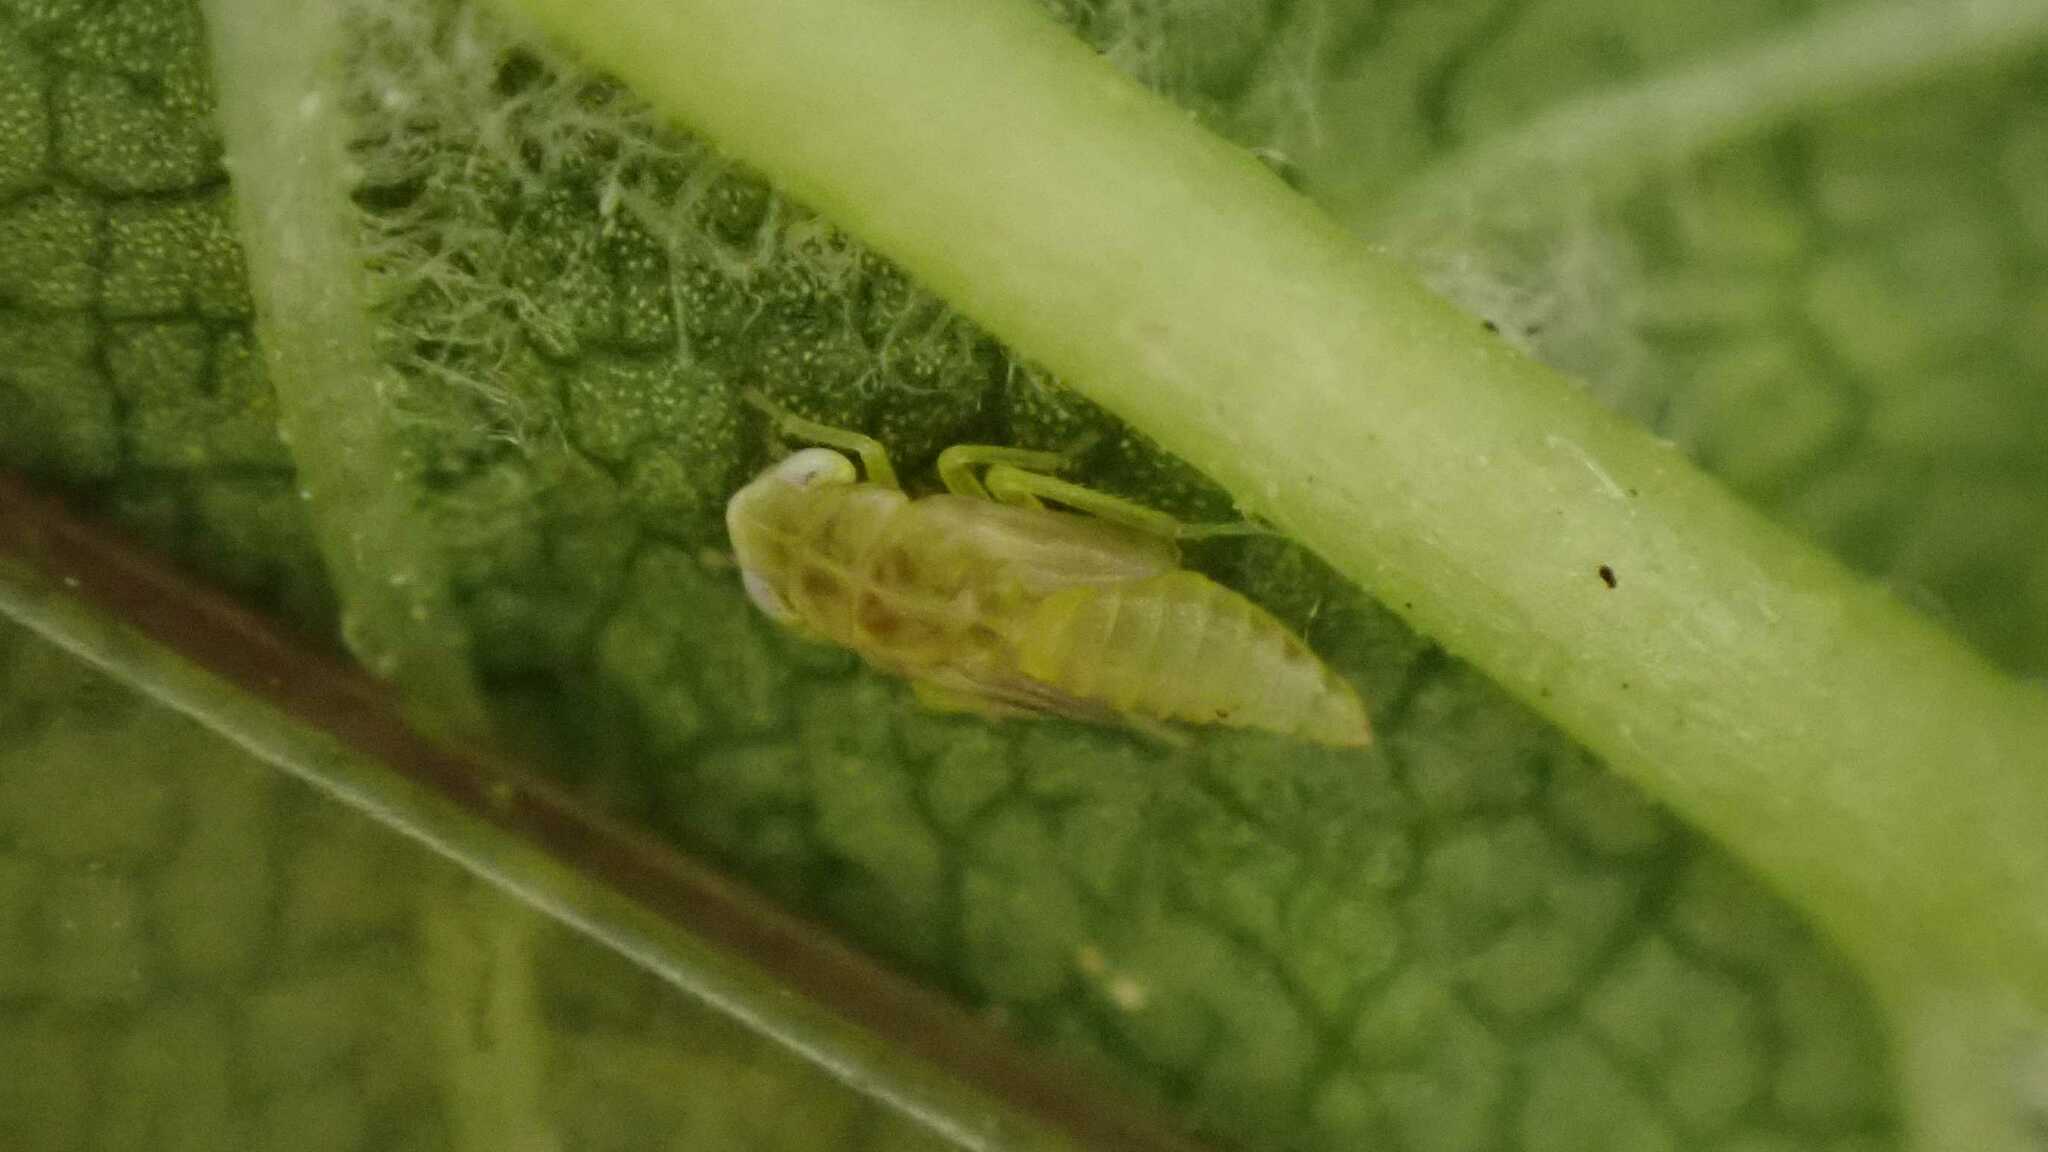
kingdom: Animalia
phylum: Arthropoda
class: Insecta
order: Hemiptera
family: Cicadellidae
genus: Tautoneura
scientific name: Tautoneura polymitusa
